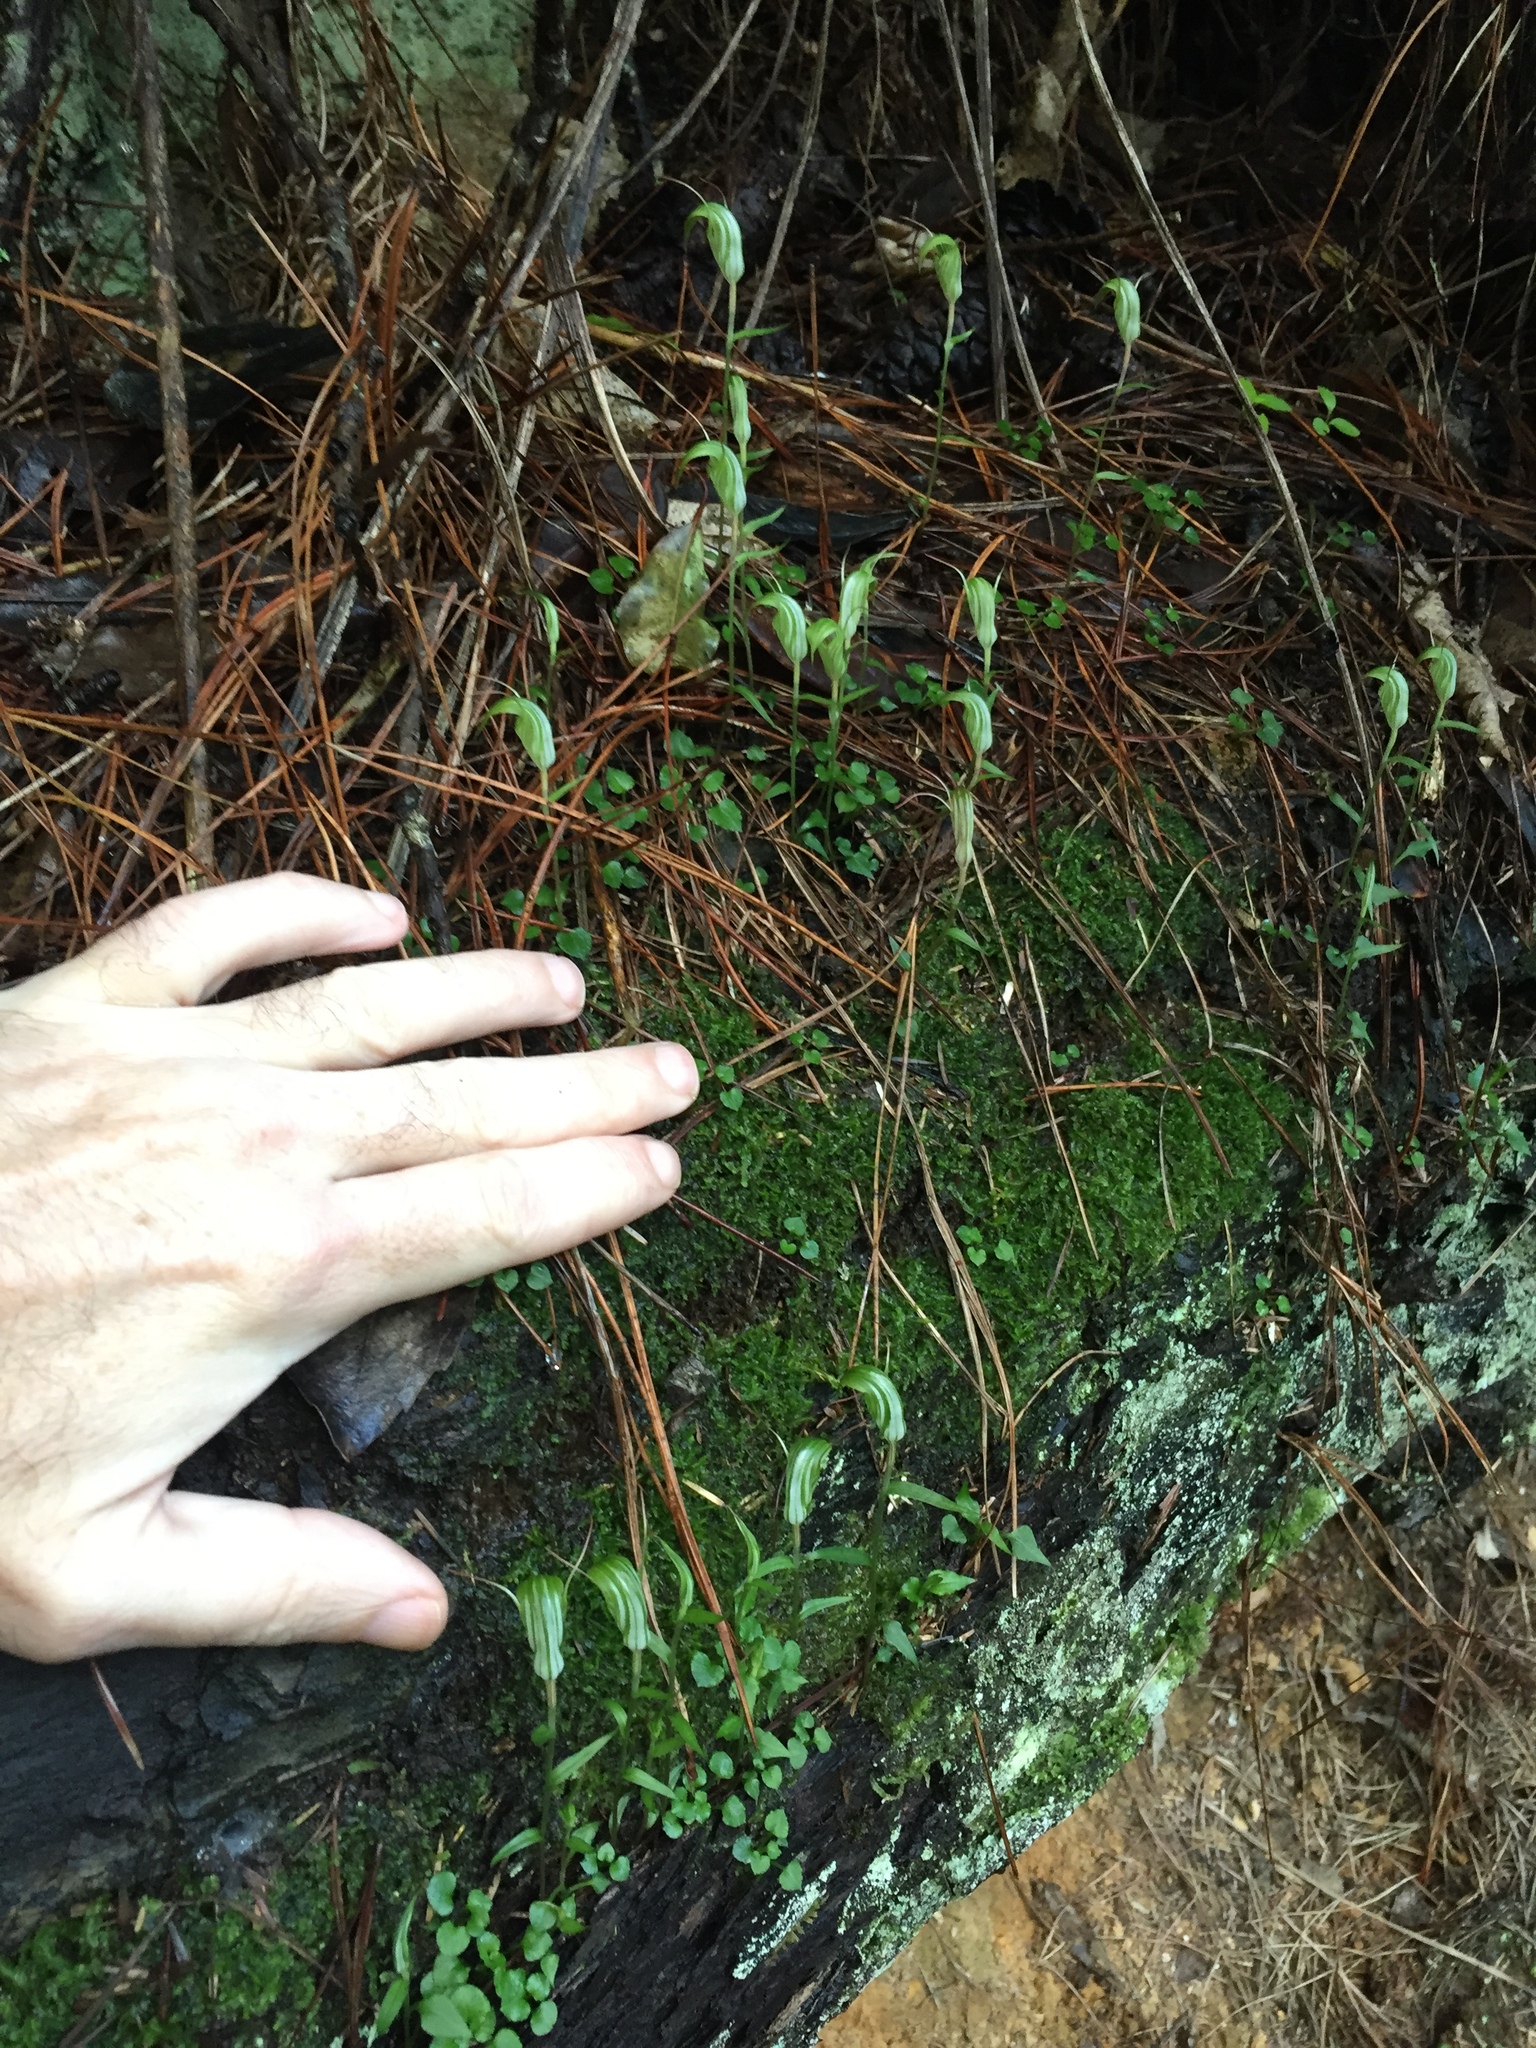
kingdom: Plantae
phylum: Tracheophyta
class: Liliopsida
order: Asparagales
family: Orchidaceae
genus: Pterostylis
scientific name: Pterostylis alobula
